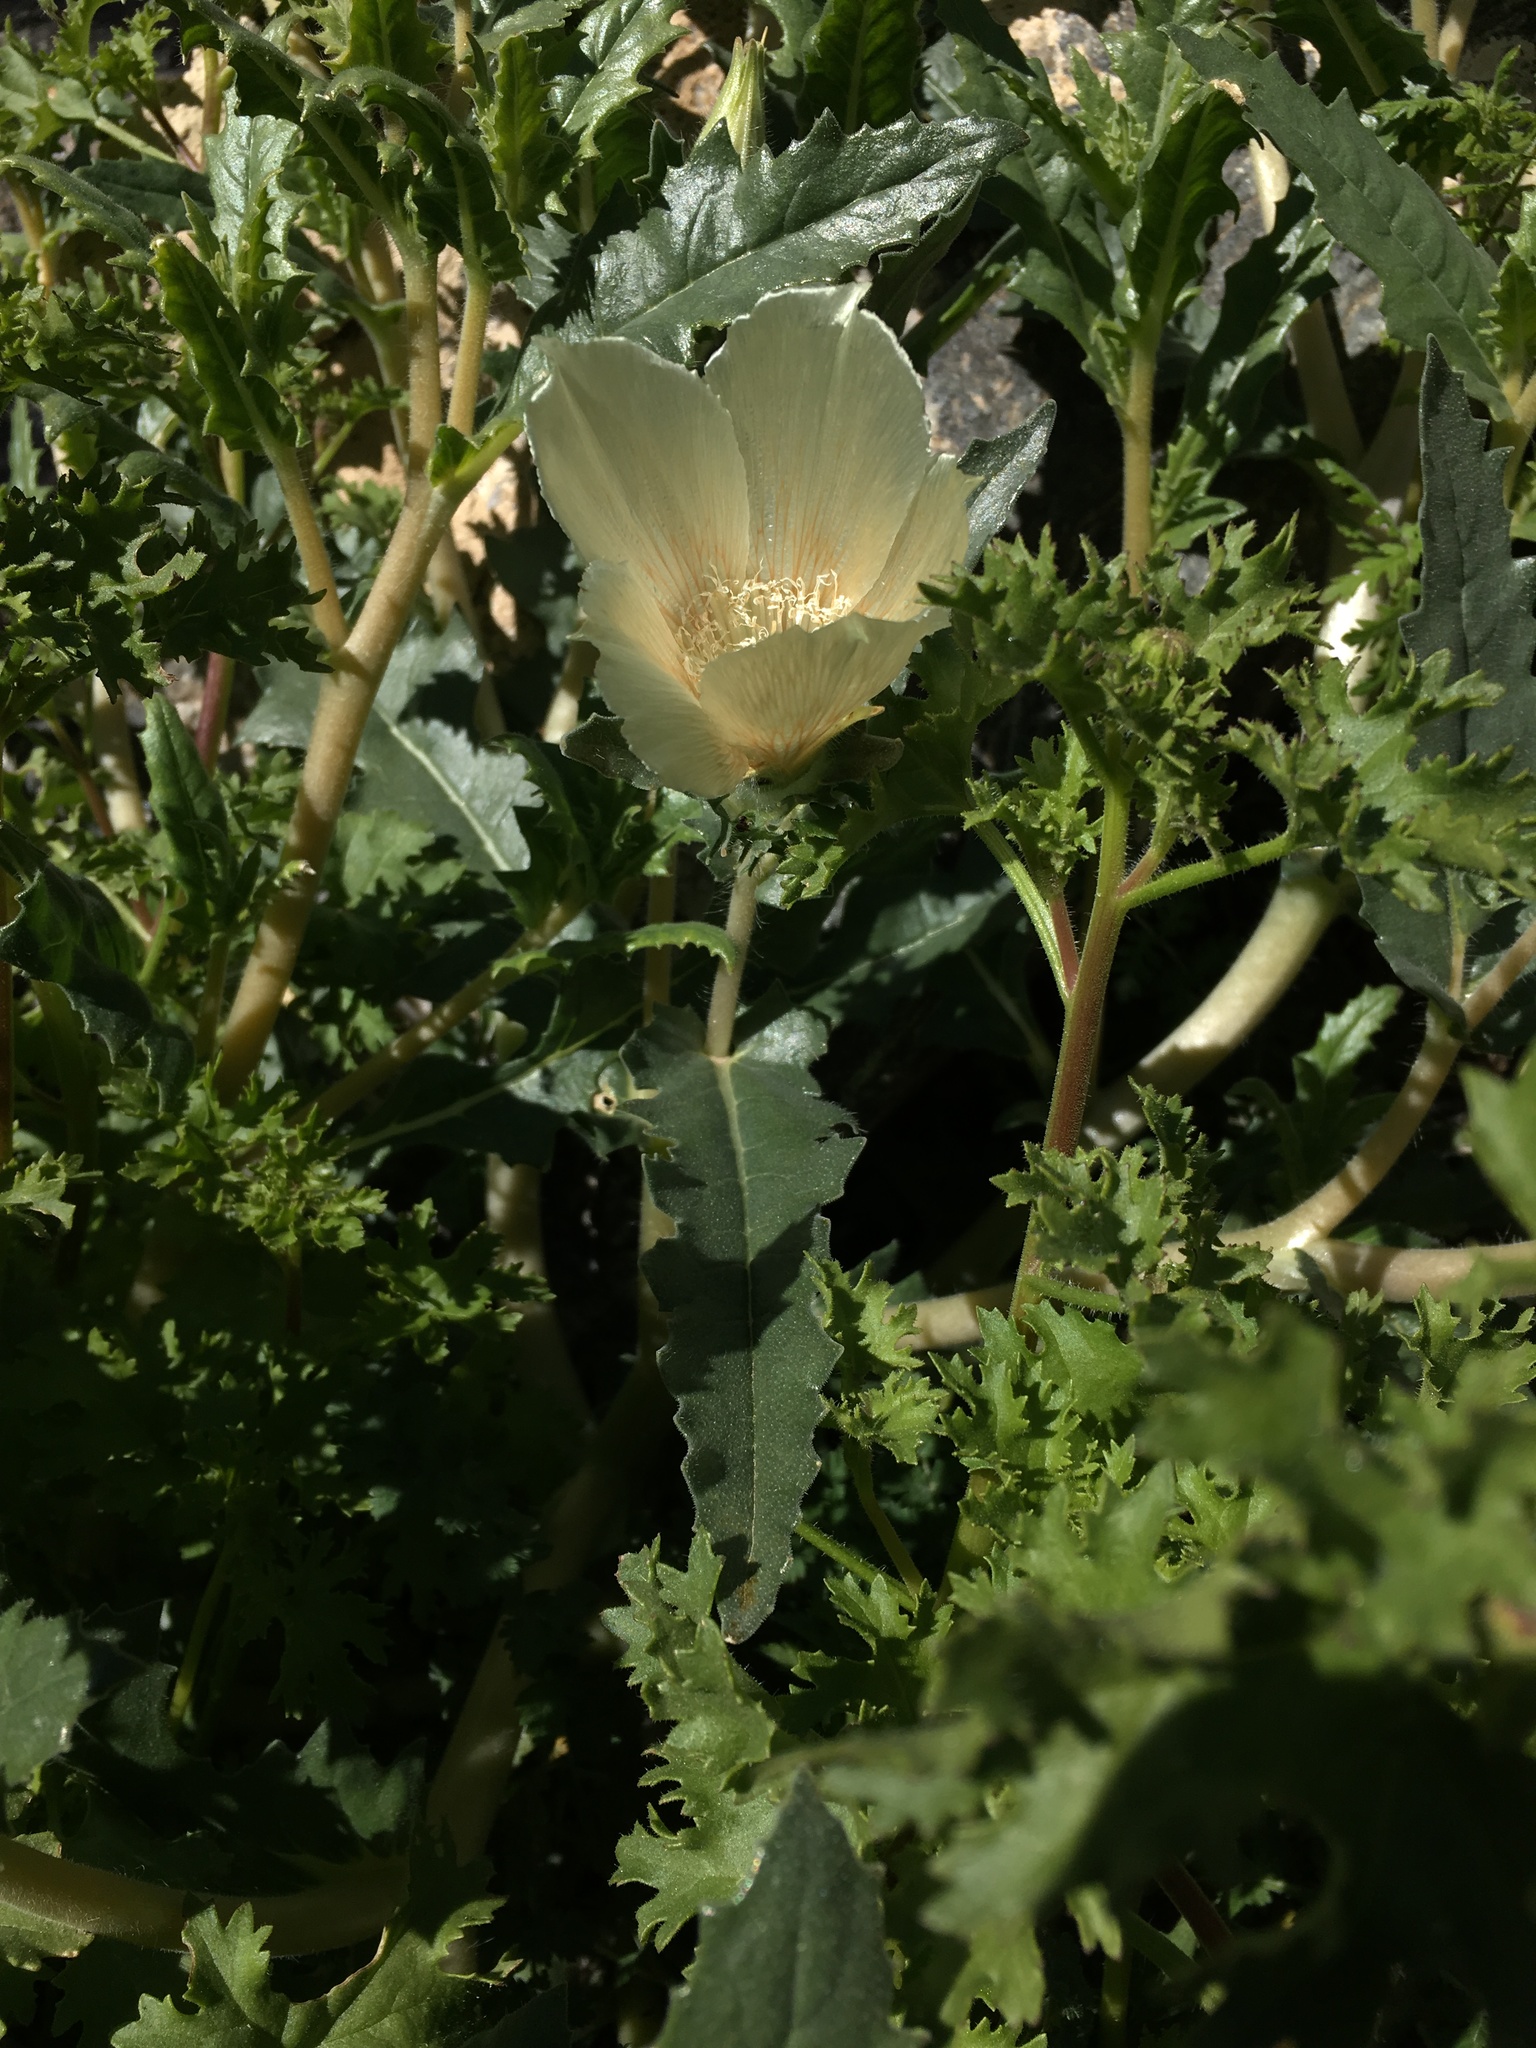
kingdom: Plantae
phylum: Tracheophyta
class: Magnoliopsida
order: Cornales
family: Loasaceae
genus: Mentzelia
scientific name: Mentzelia involucrata
